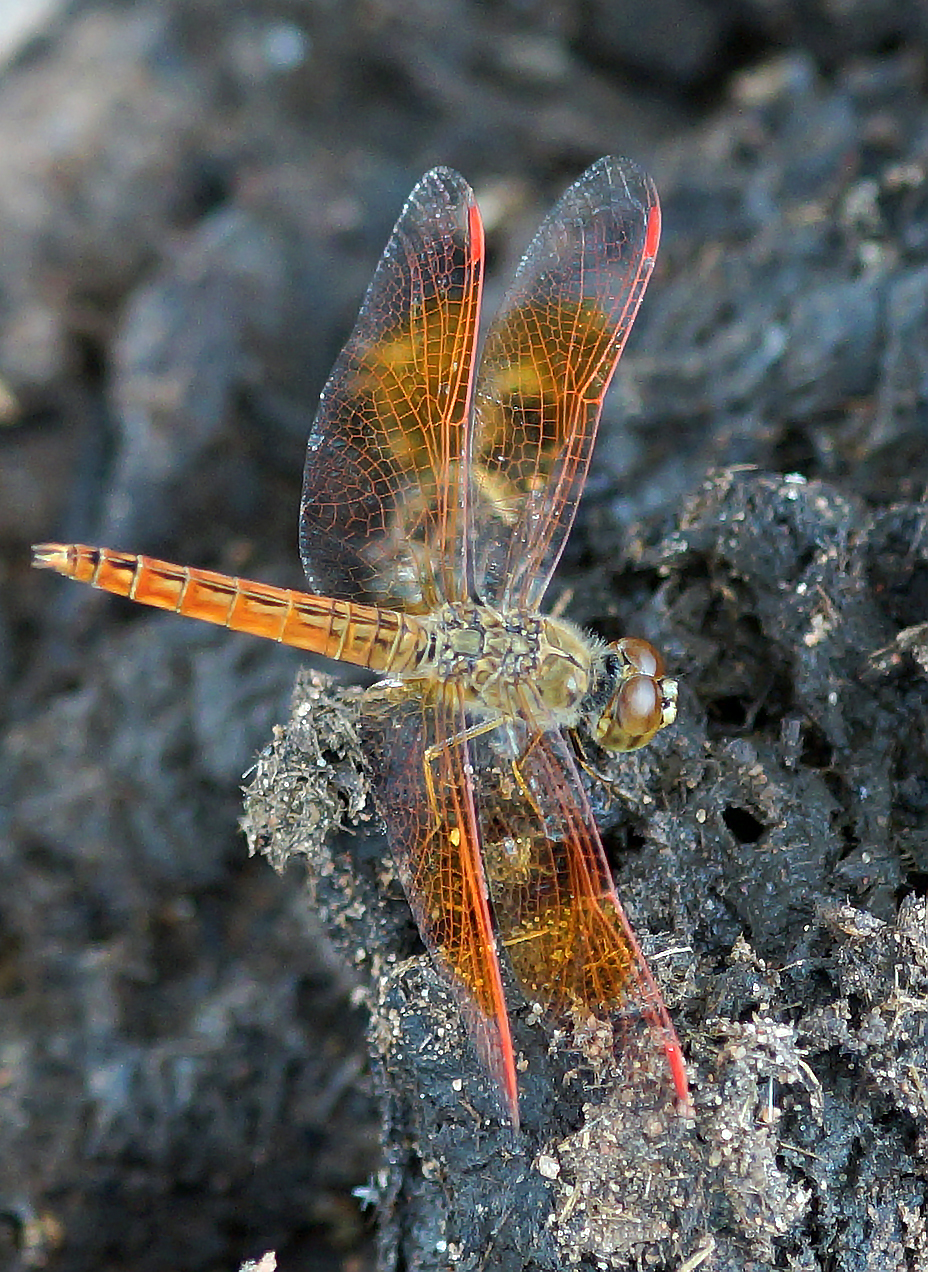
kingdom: Animalia
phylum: Arthropoda
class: Insecta
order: Odonata
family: Libellulidae
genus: Brachythemis
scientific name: Brachythemis contaminata
